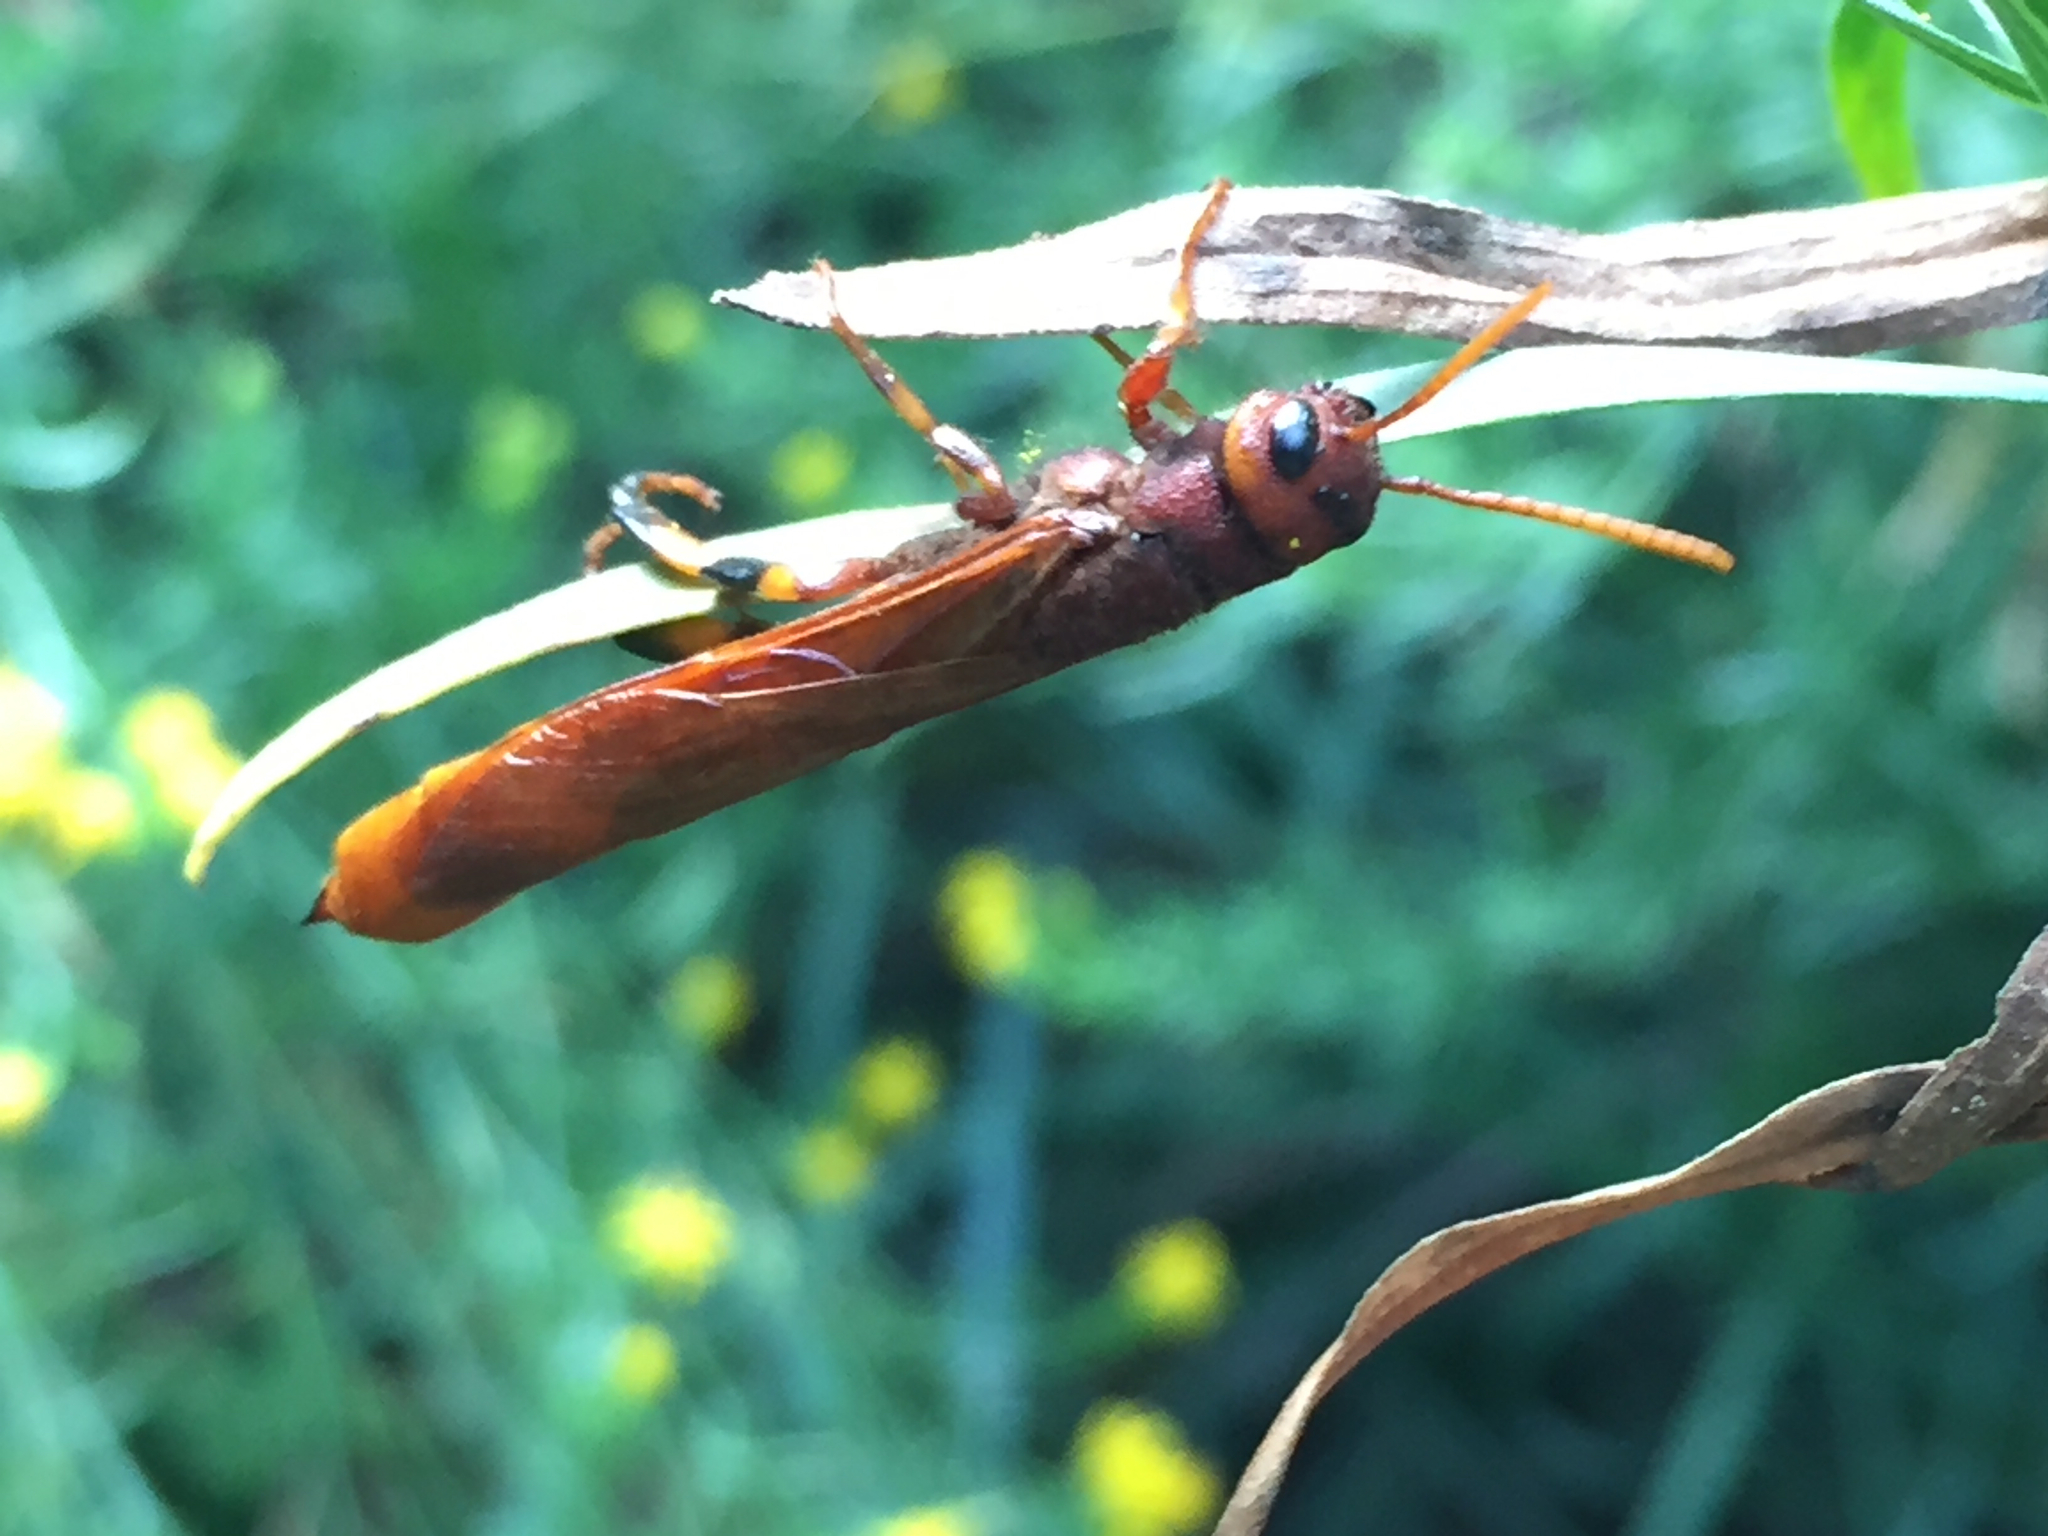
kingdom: Animalia
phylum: Arthropoda
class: Insecta
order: Hymenoptera
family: Siricidae
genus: Tremex
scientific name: Tremex columba
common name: Wasp
